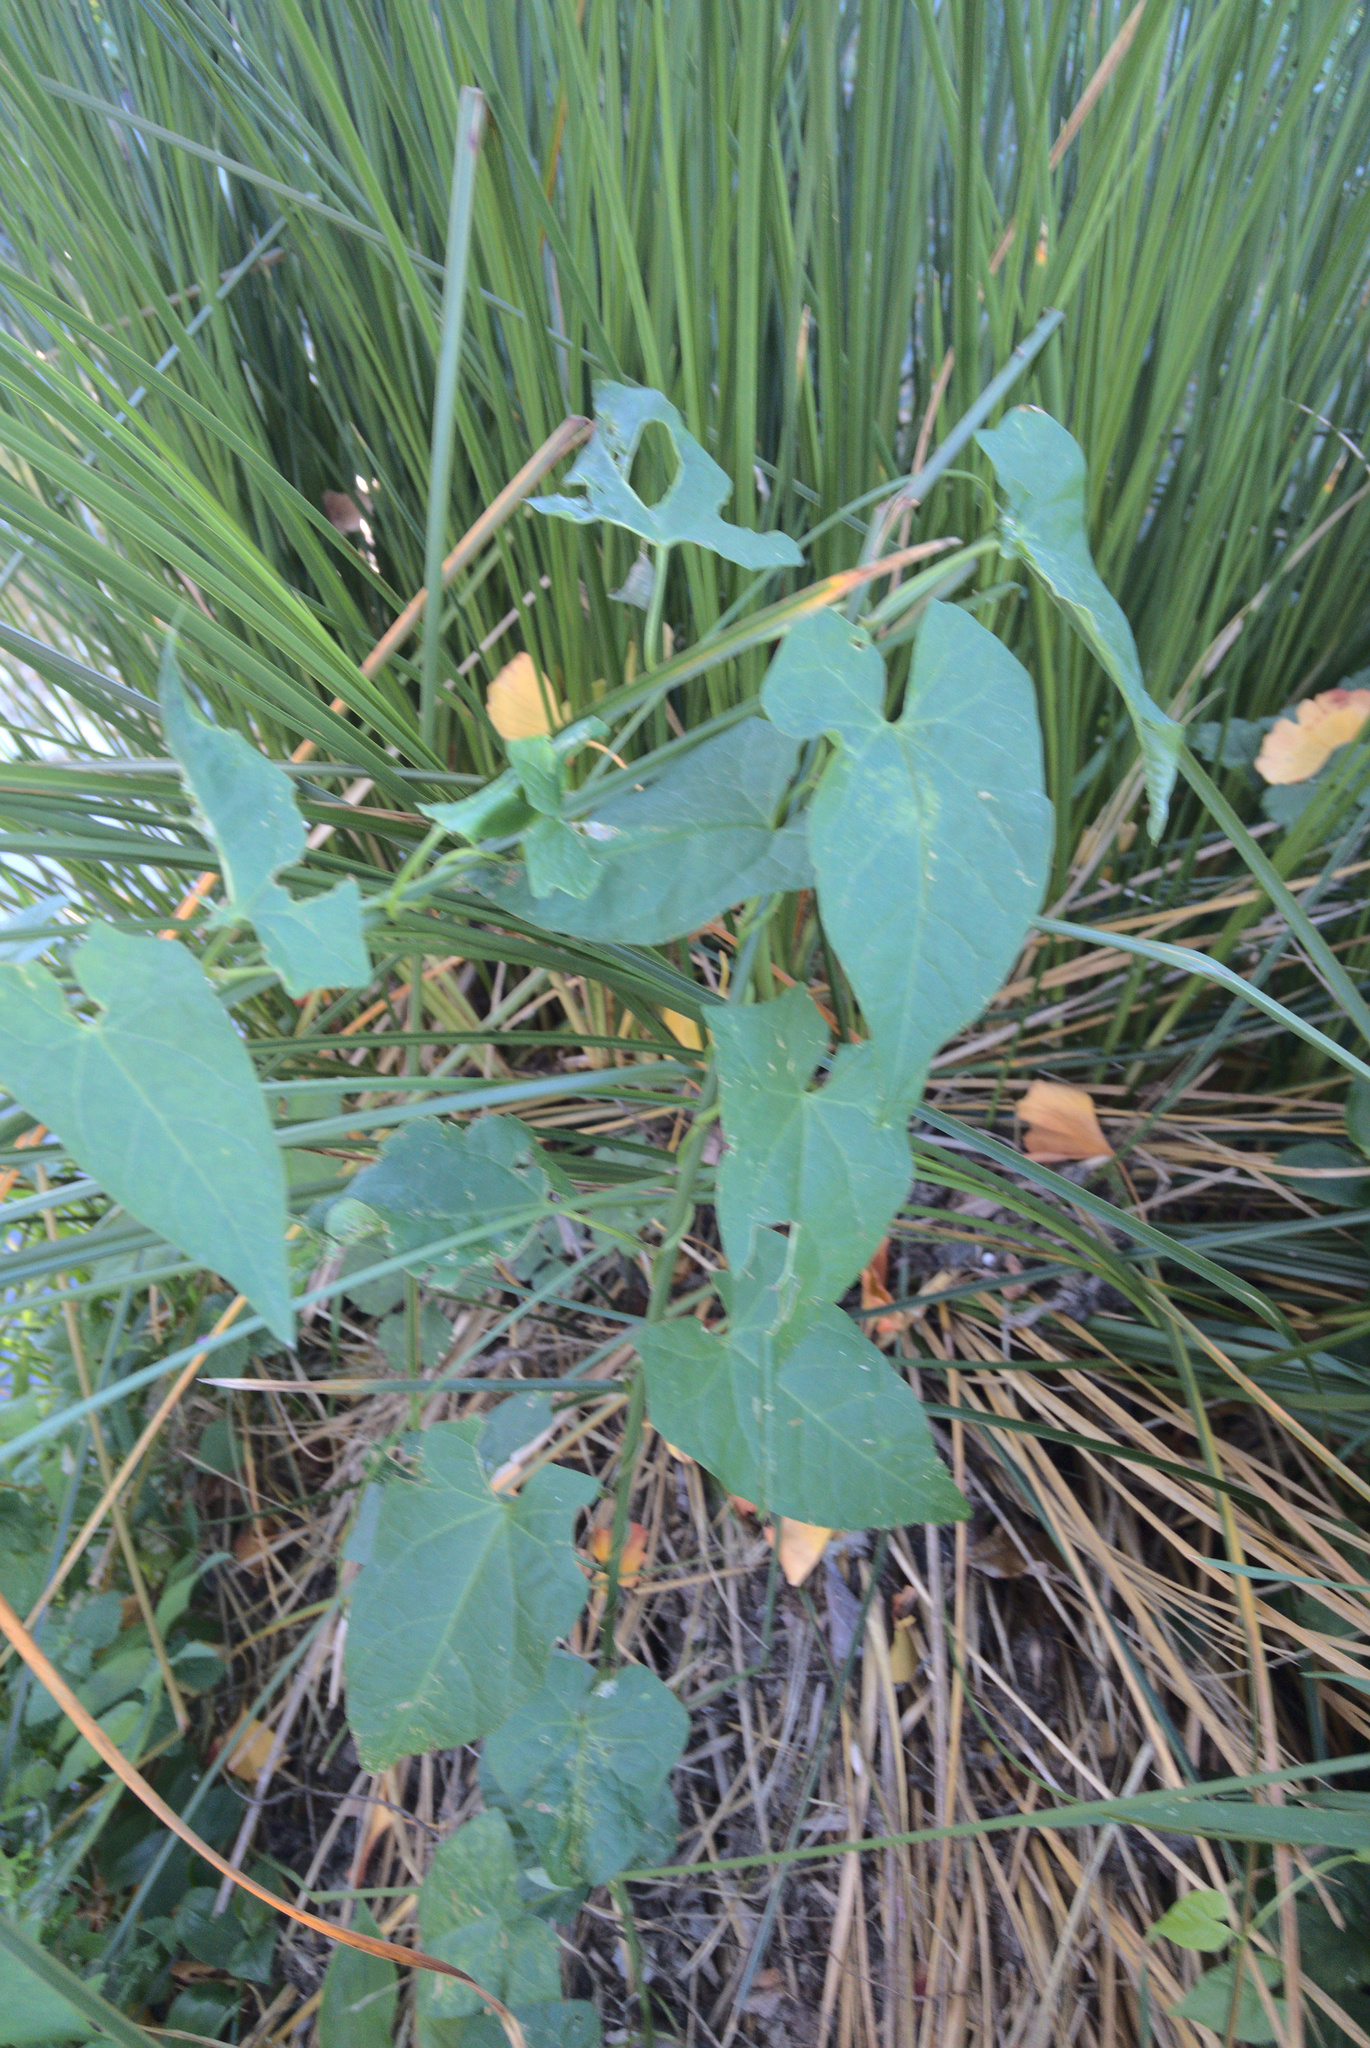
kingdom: Plantae
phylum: Tracheophyta
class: Magnoliopsida
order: Solanales
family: Convolvulaceae
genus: Calystegia
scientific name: Calystegia silvatica
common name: Large bindweed
